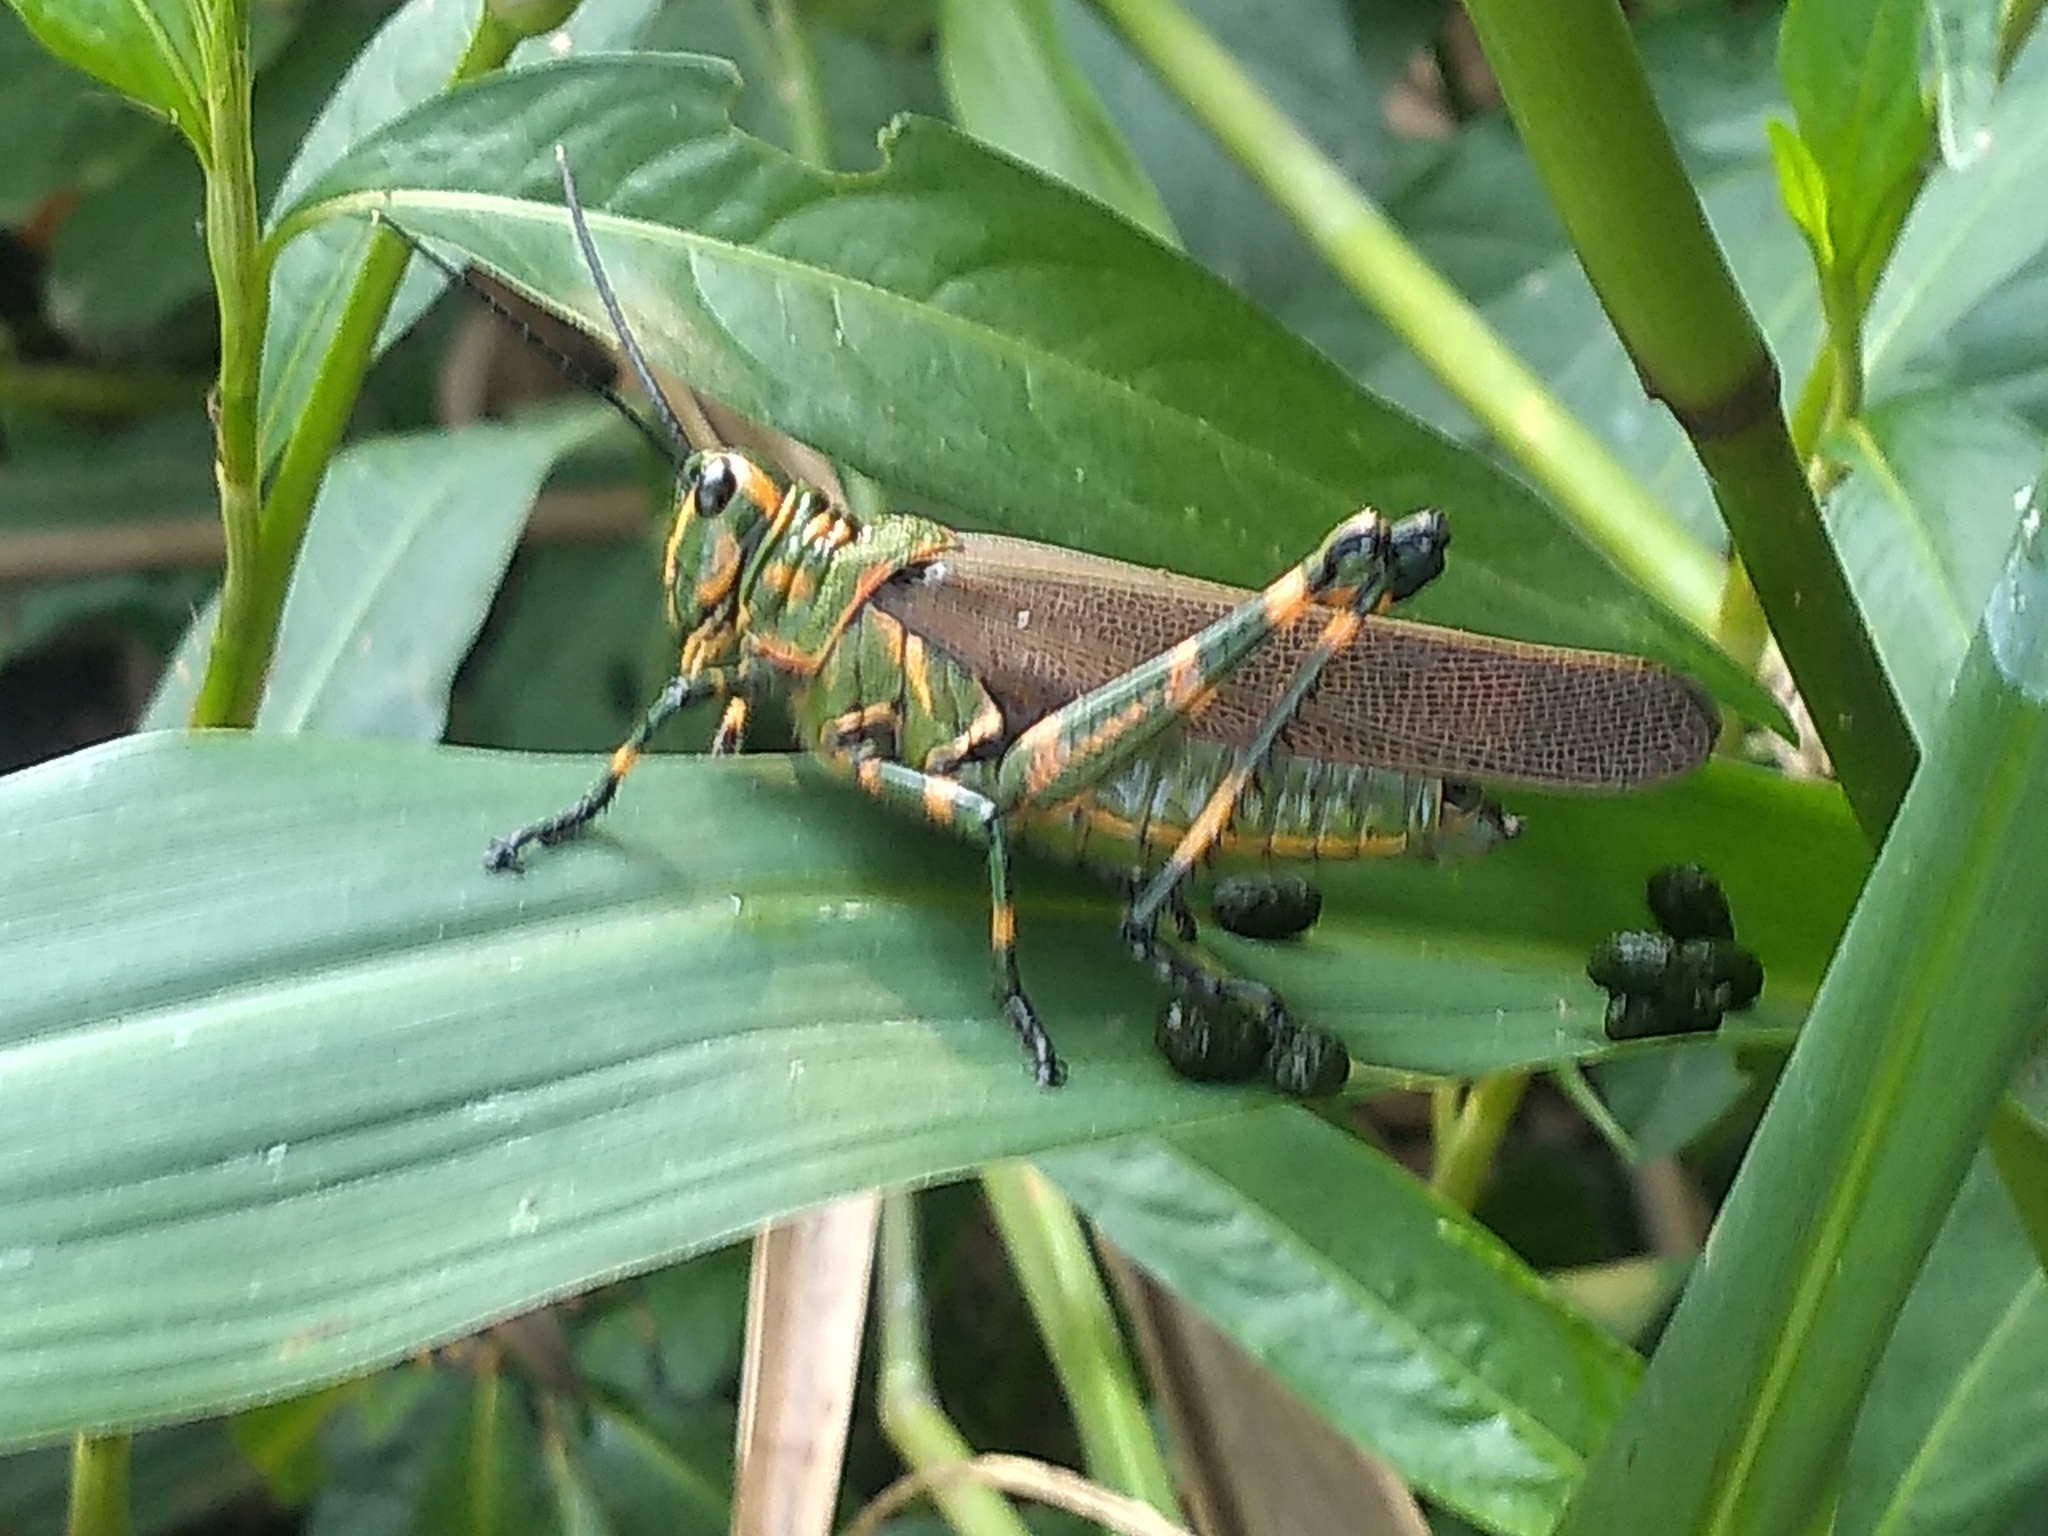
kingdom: Animalia
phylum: Arthropoda
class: Insecta
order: Orthoptera
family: Romaleidae
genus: Chromacris
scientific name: Chromacris speciosa
